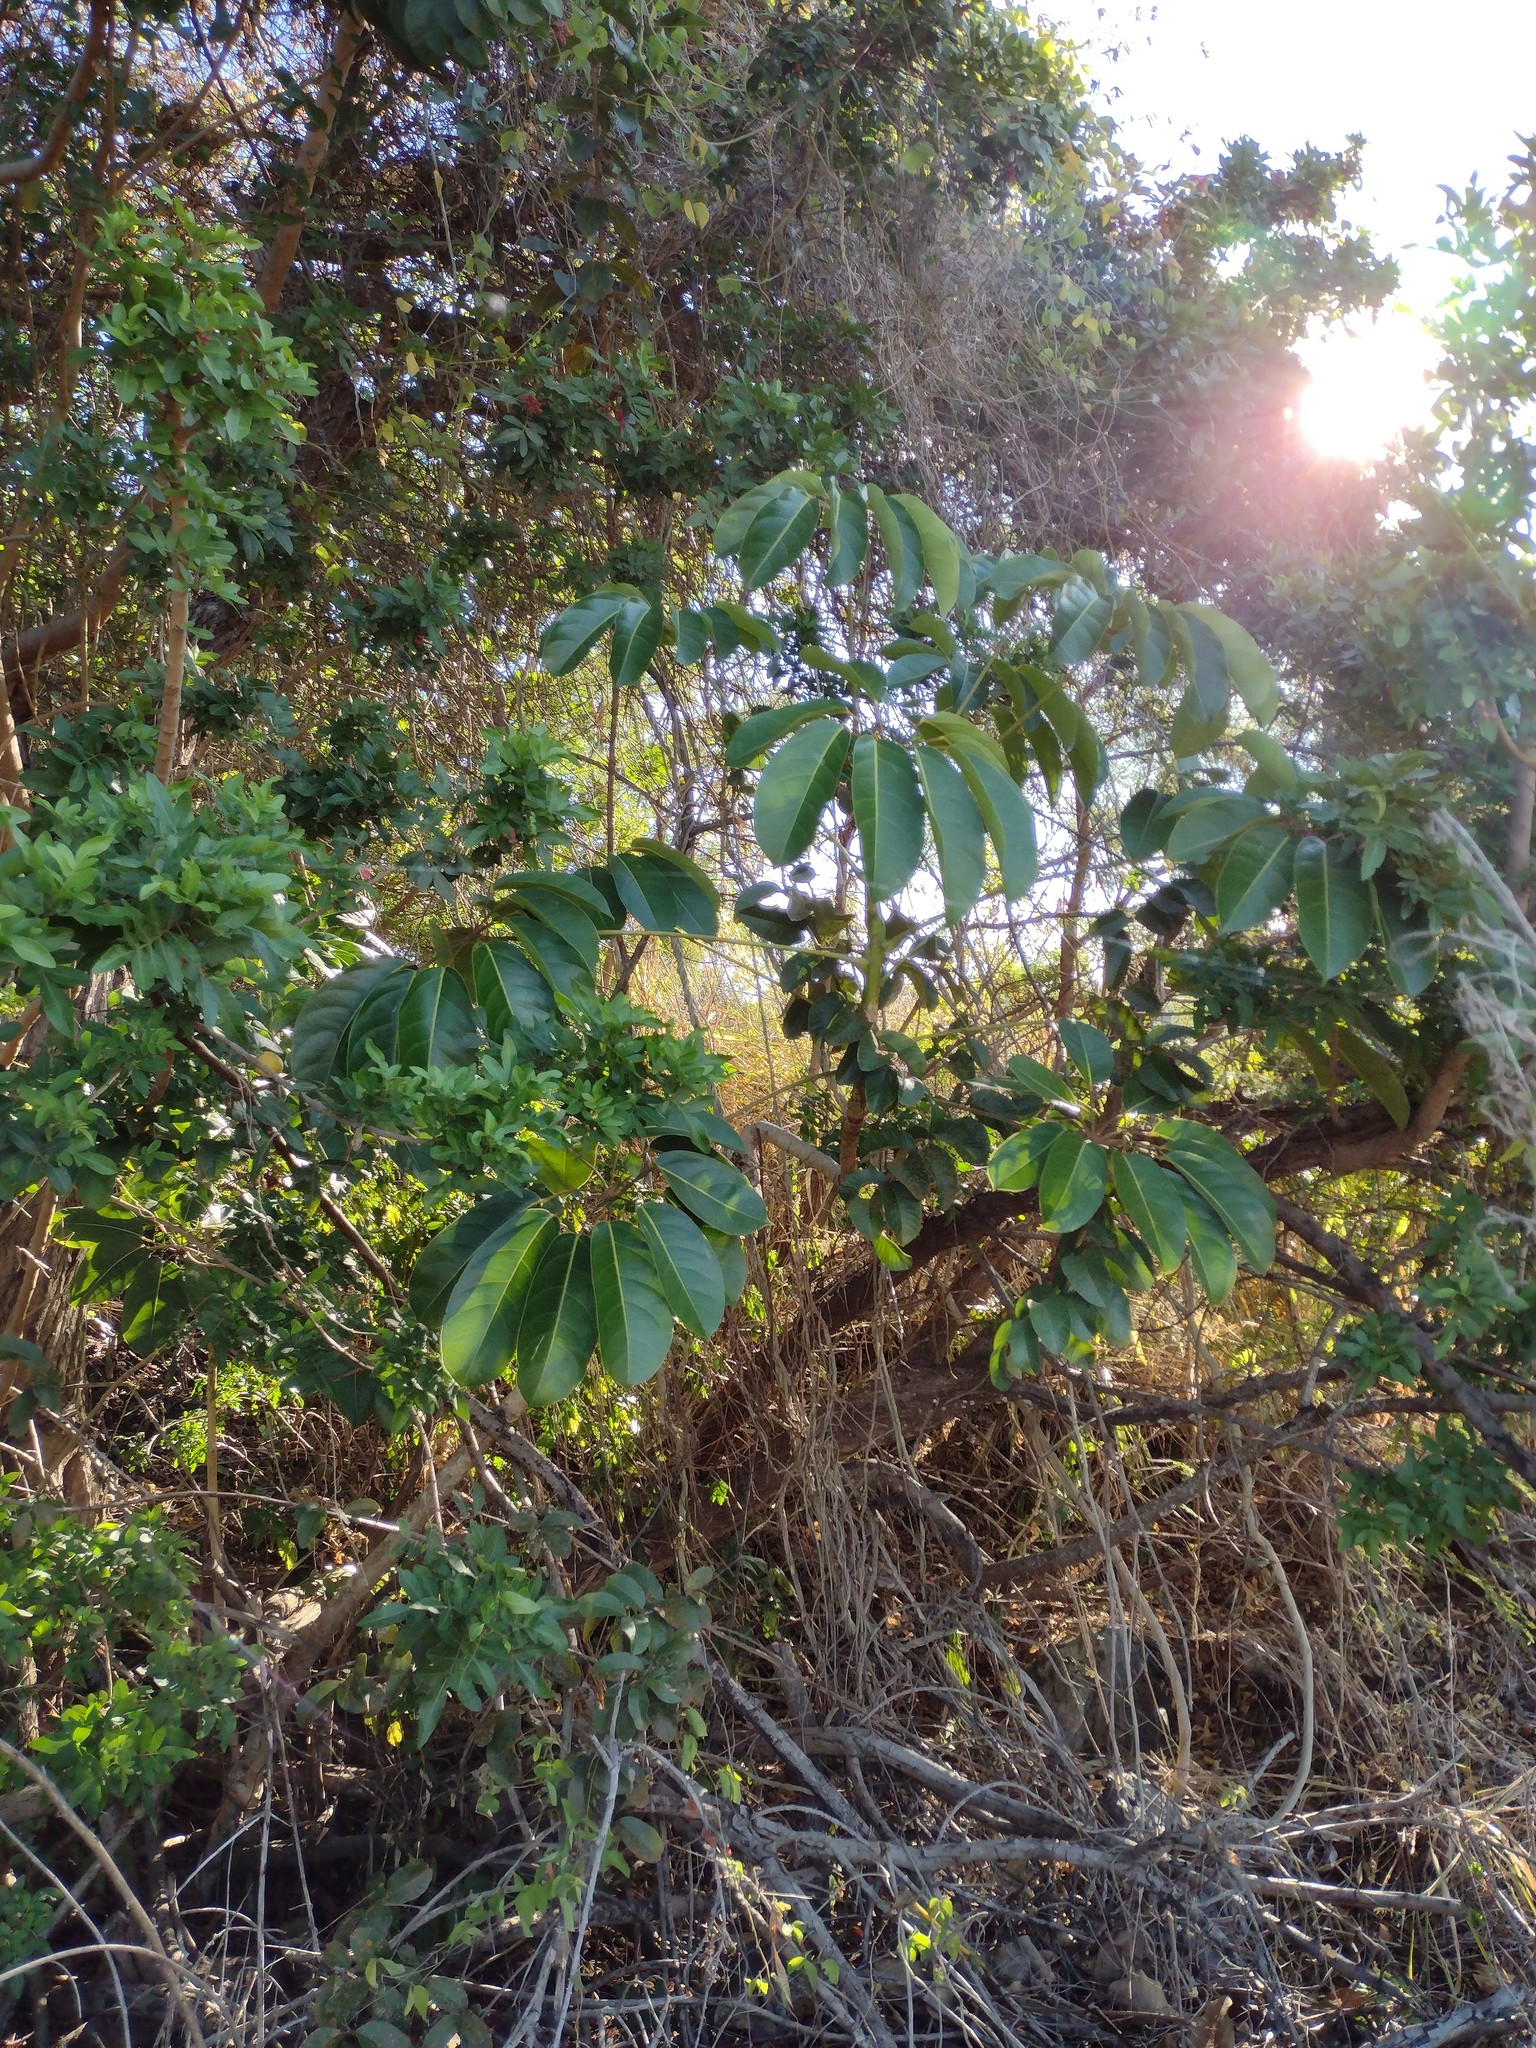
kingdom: Plantae
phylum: Tracheophyta
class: Magnoliopsida
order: Apiales
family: Araliaceae
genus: Heptapleurum
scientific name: Heptapleurum actinophyllum
